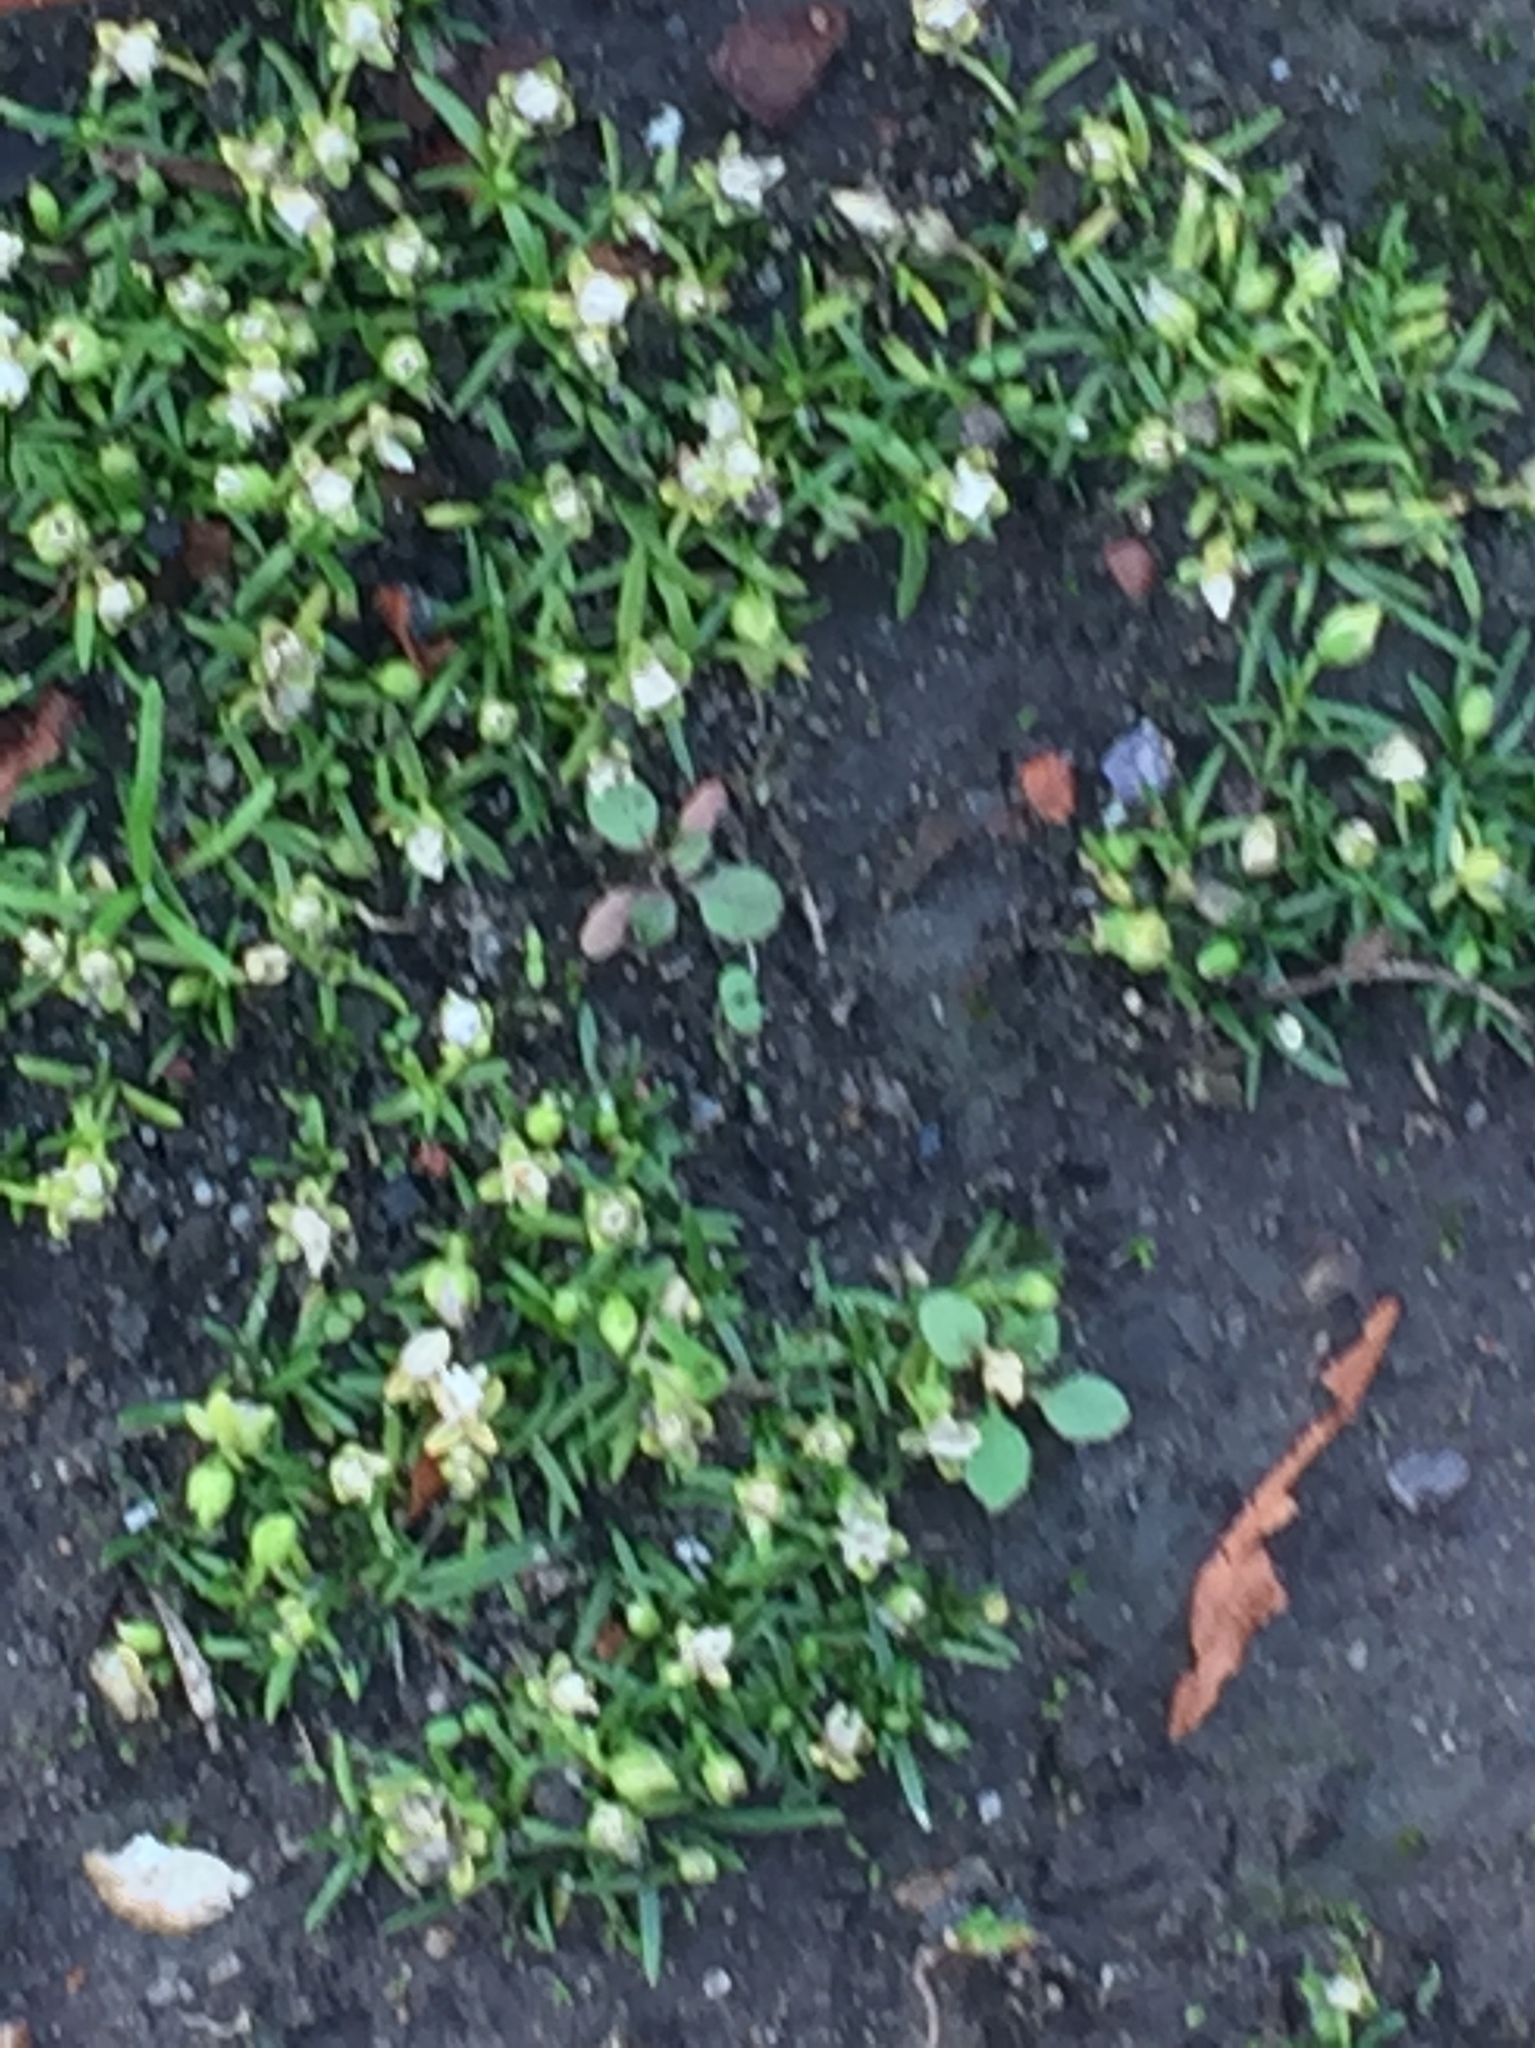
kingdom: Plantae
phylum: Tracheophyta
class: Magnoliopsida
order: Caryophyllales
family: Caryophyllaceae
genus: Sagina
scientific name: Sagina procumbens
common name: Procumbent pearlwort
